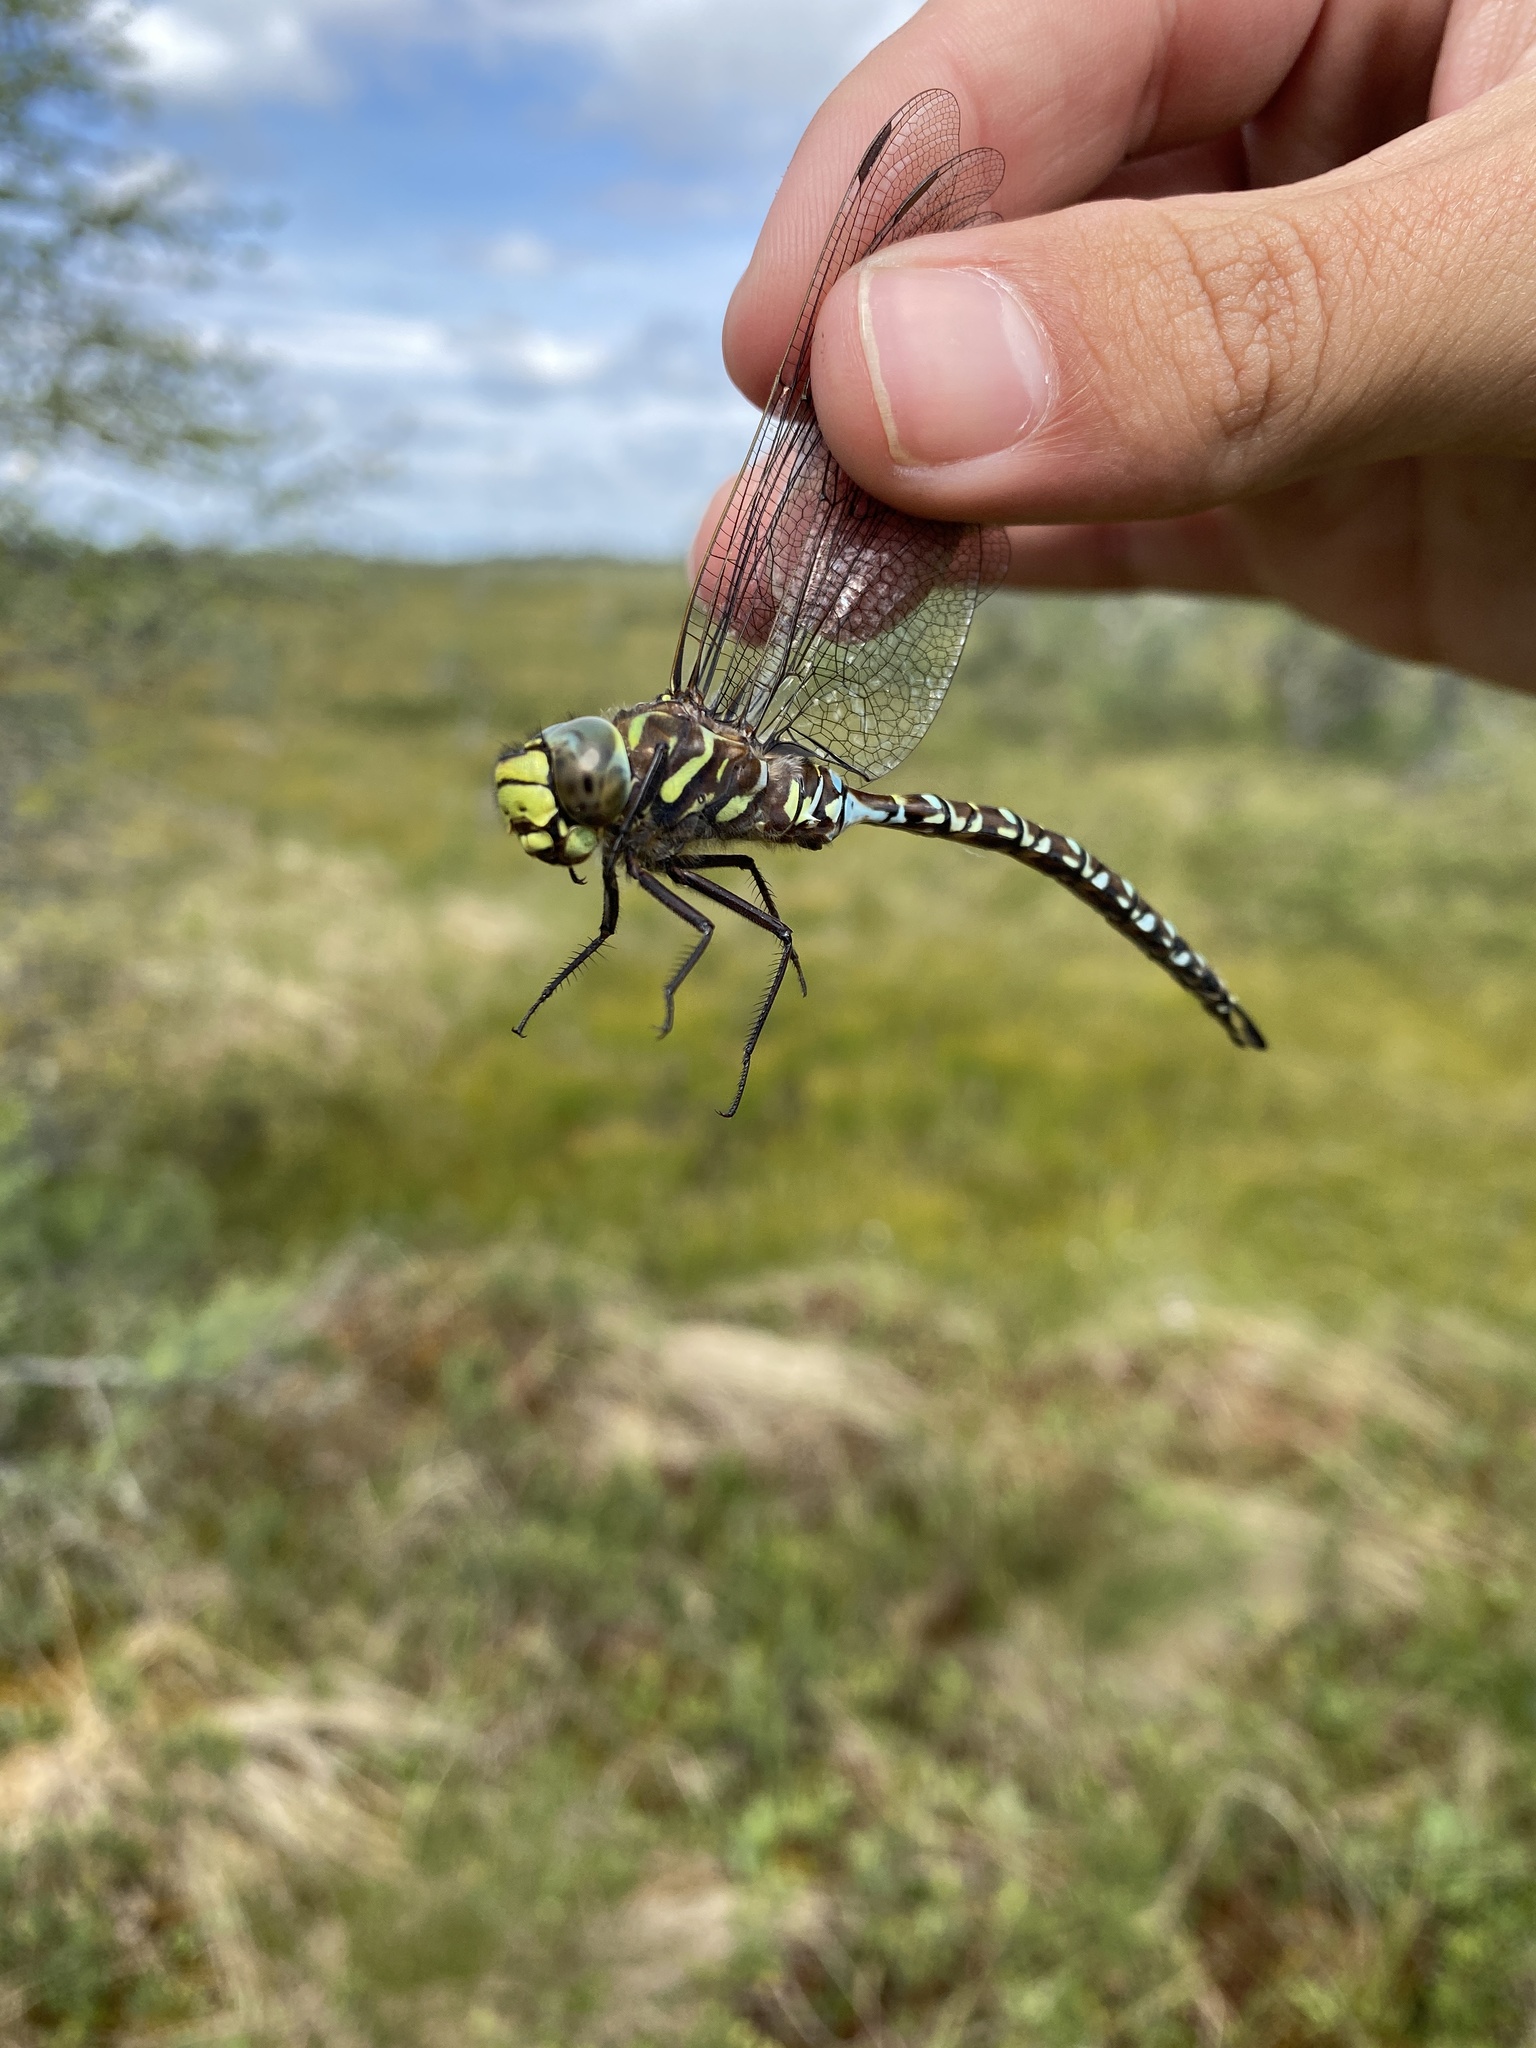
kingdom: Animalia
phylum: Arthropoda
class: Insecta
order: Odonata
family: Aeshnidae
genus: Aeshna
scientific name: Aeshna subarctica
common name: Subarctic darner
